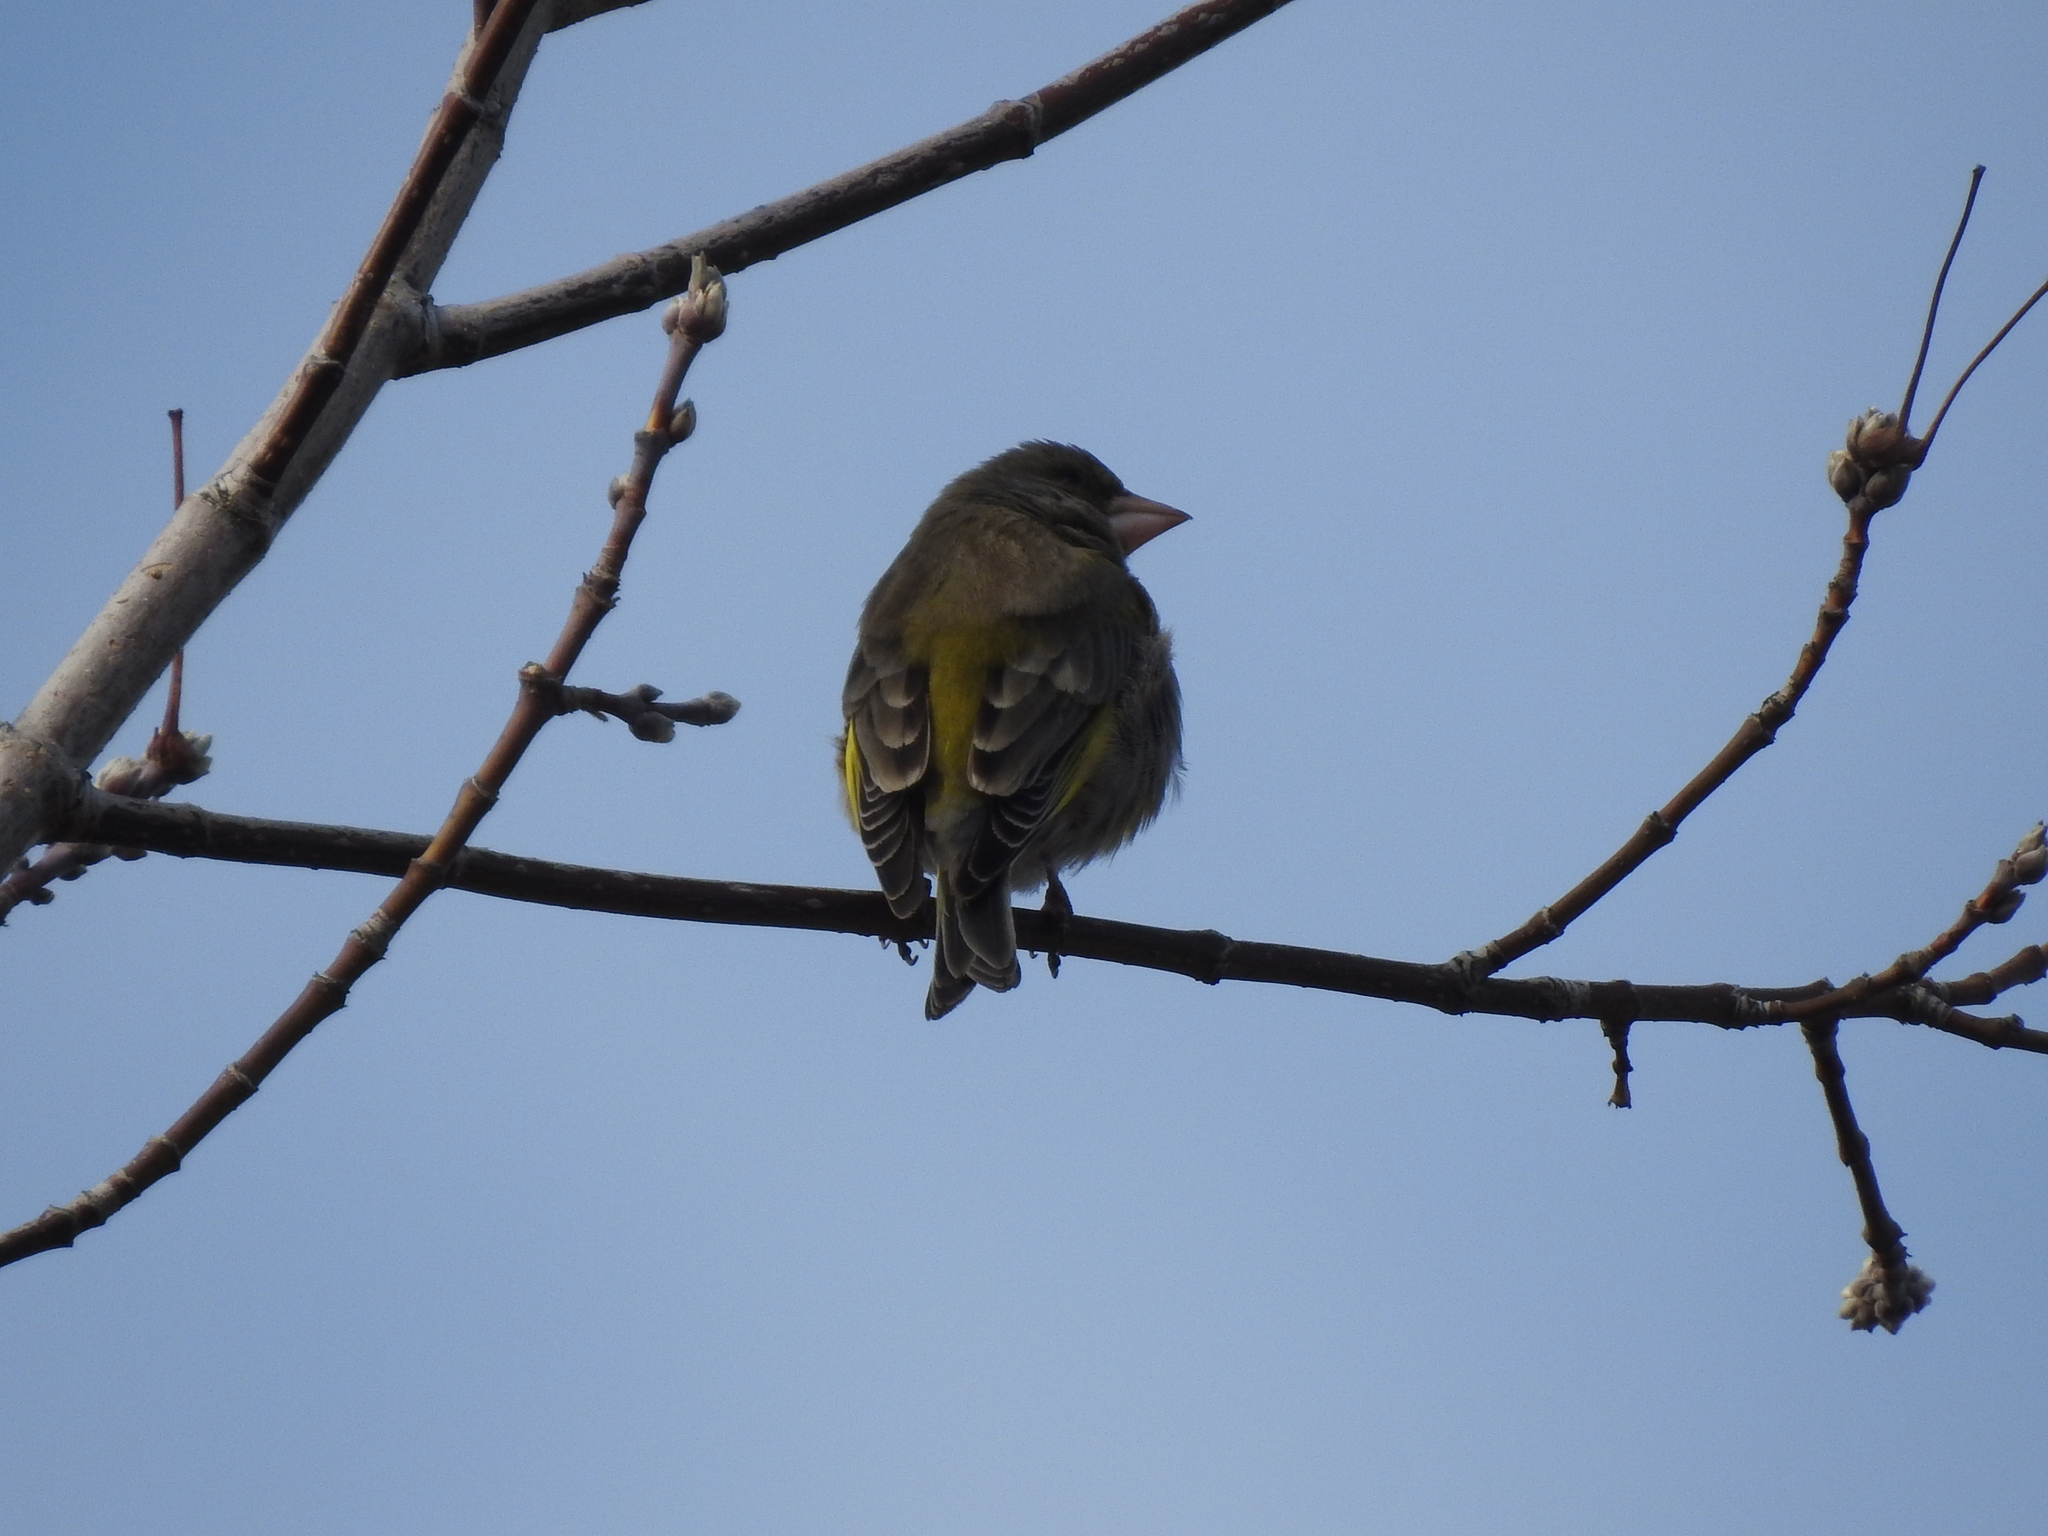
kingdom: Plantae
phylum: Tracheophyta
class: Liliopsida
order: Poales
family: Poaceae
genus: Chloris
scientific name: Chloris chloris
